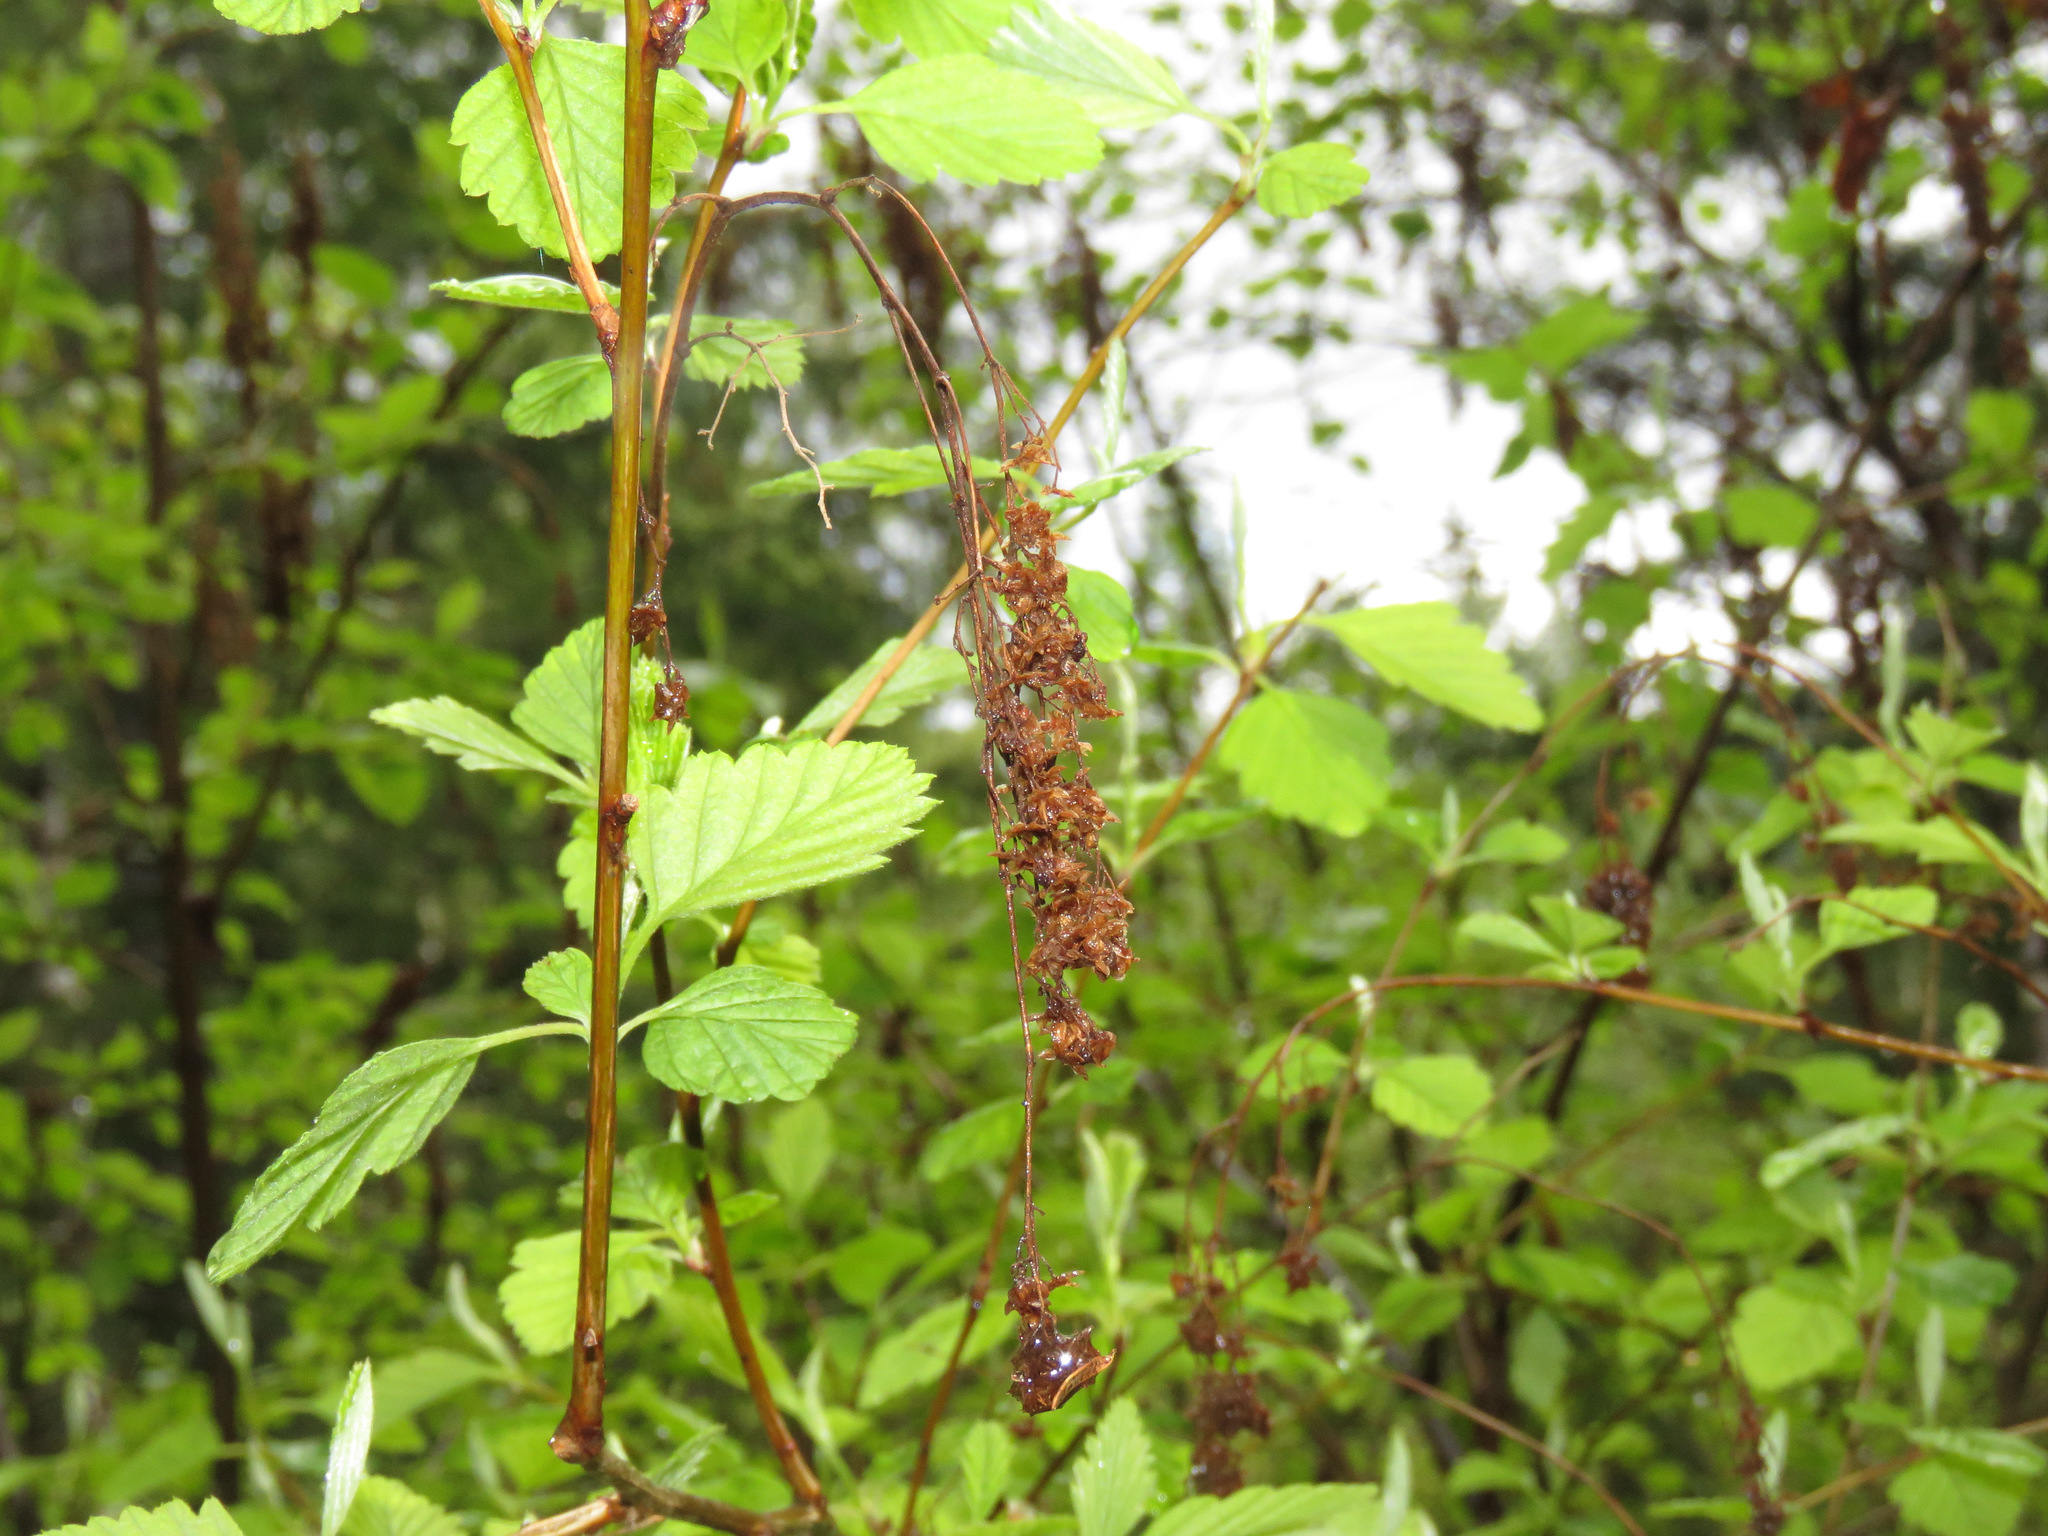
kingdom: Plantae
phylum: Tracheophyta
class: Magnoliopsida
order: Rosales
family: Rosaceae
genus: Holodiscus
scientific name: Holodiscus discolor
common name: Oceanspray
